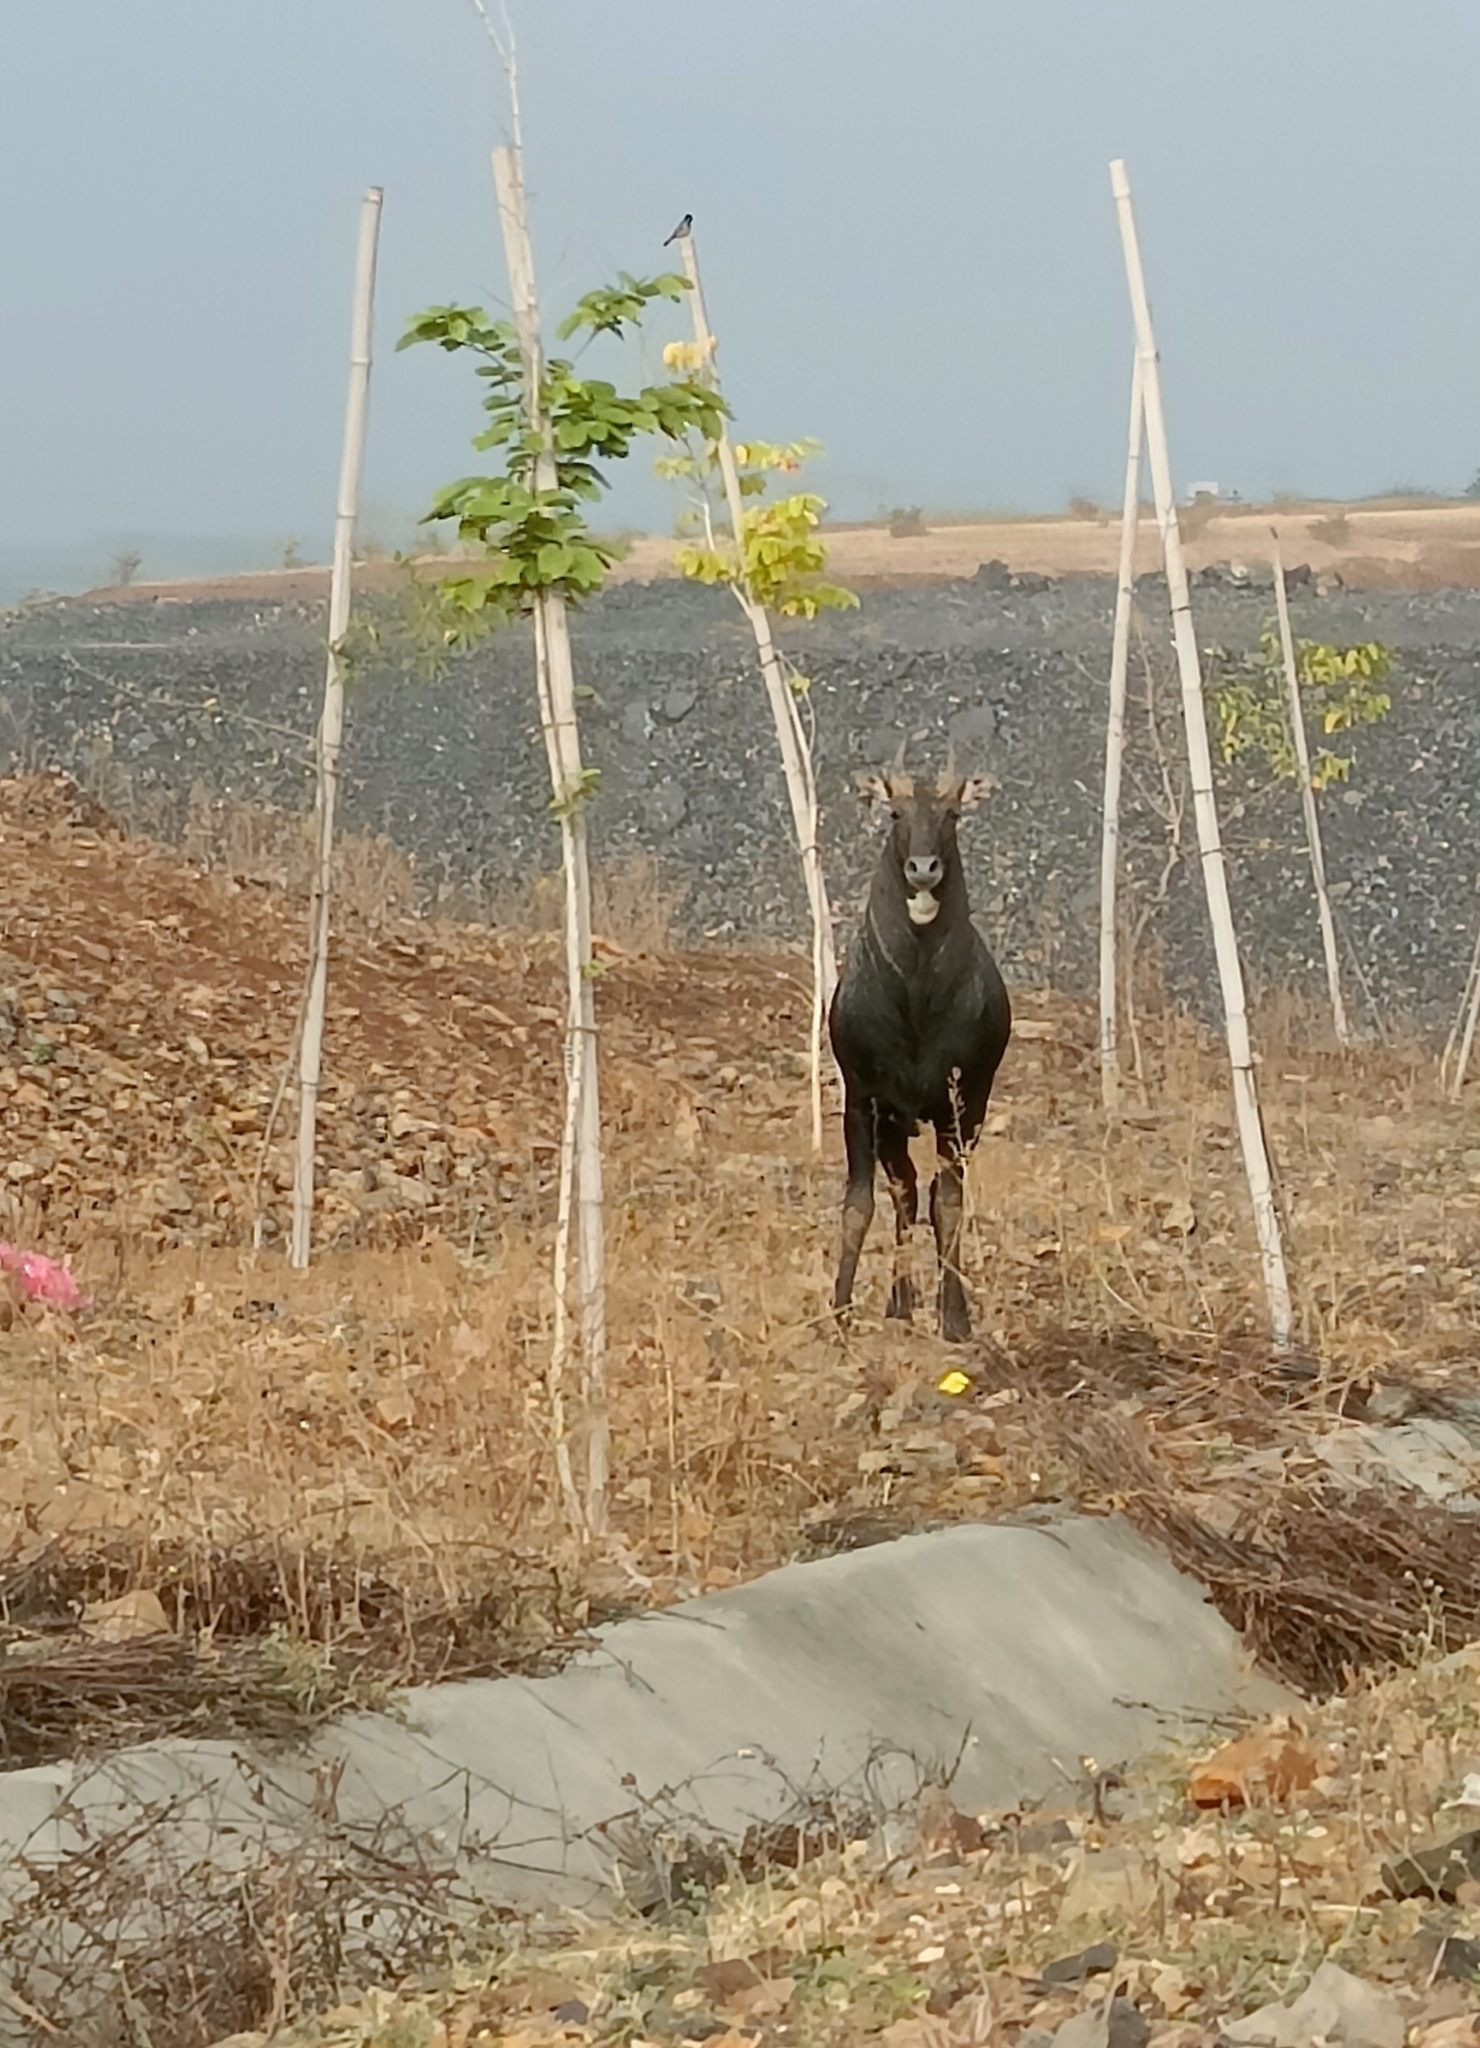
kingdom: Animalia
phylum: Chordata
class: Mammalia
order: Artiodactyla
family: Bovidae
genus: Boselaphus
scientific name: Boselaphus tragocamelus
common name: Nilgai
